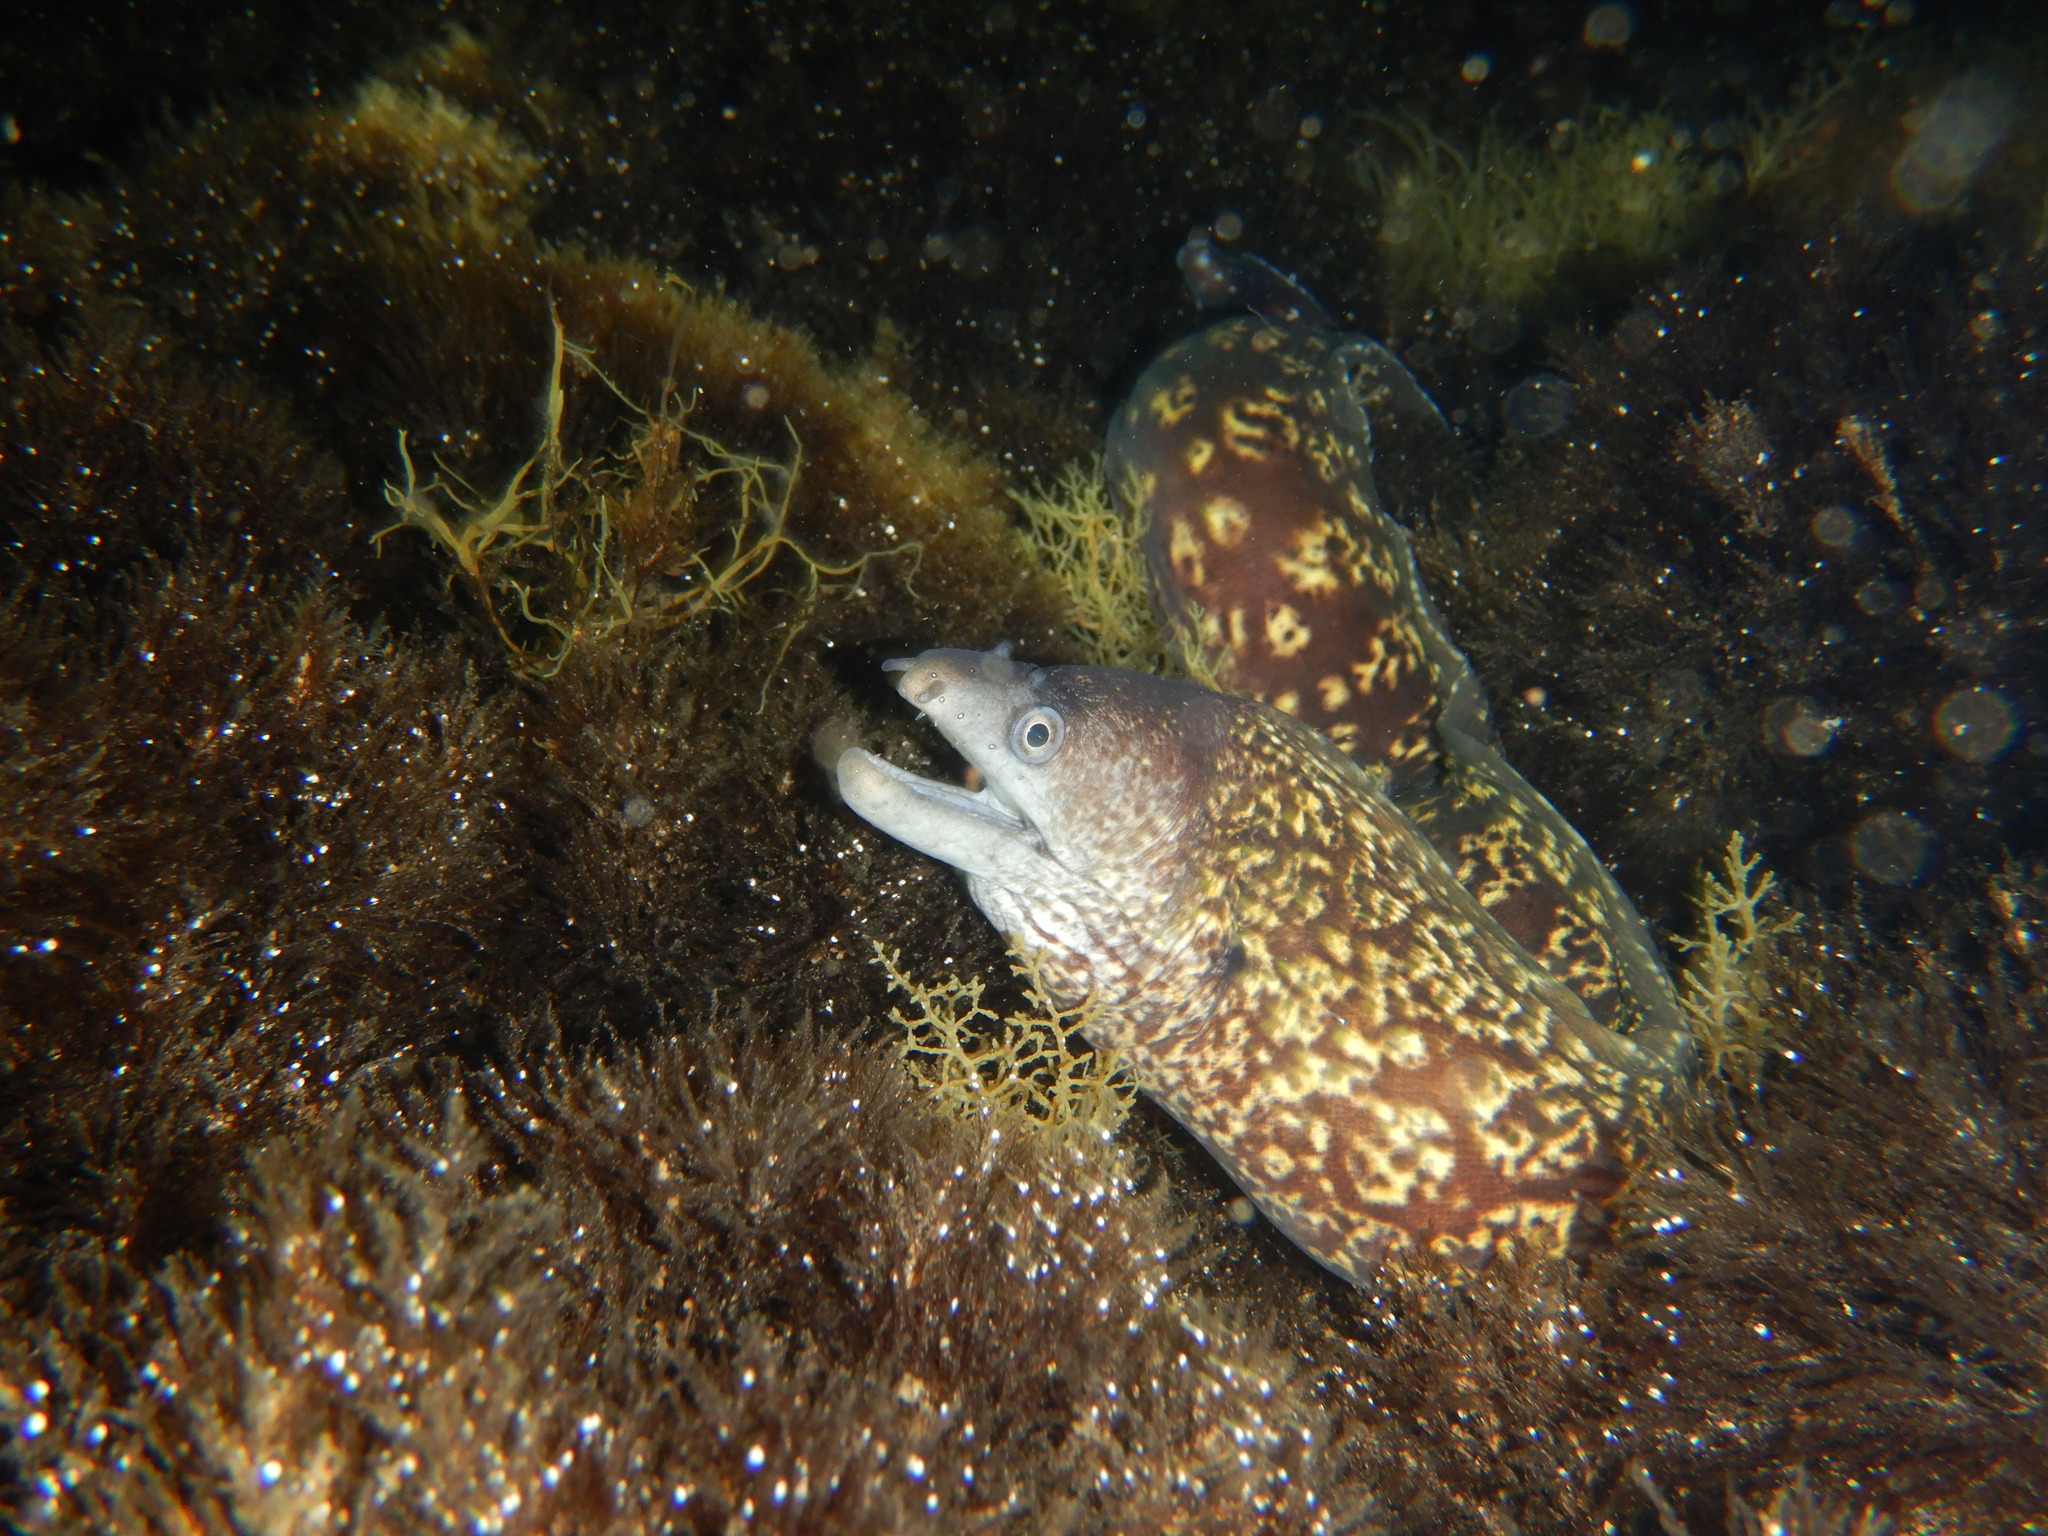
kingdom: Animalia
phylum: Chordata
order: Anguilliformes
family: Muraenidae
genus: Muraena
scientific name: Muraena helena
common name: Mediterranean moray
